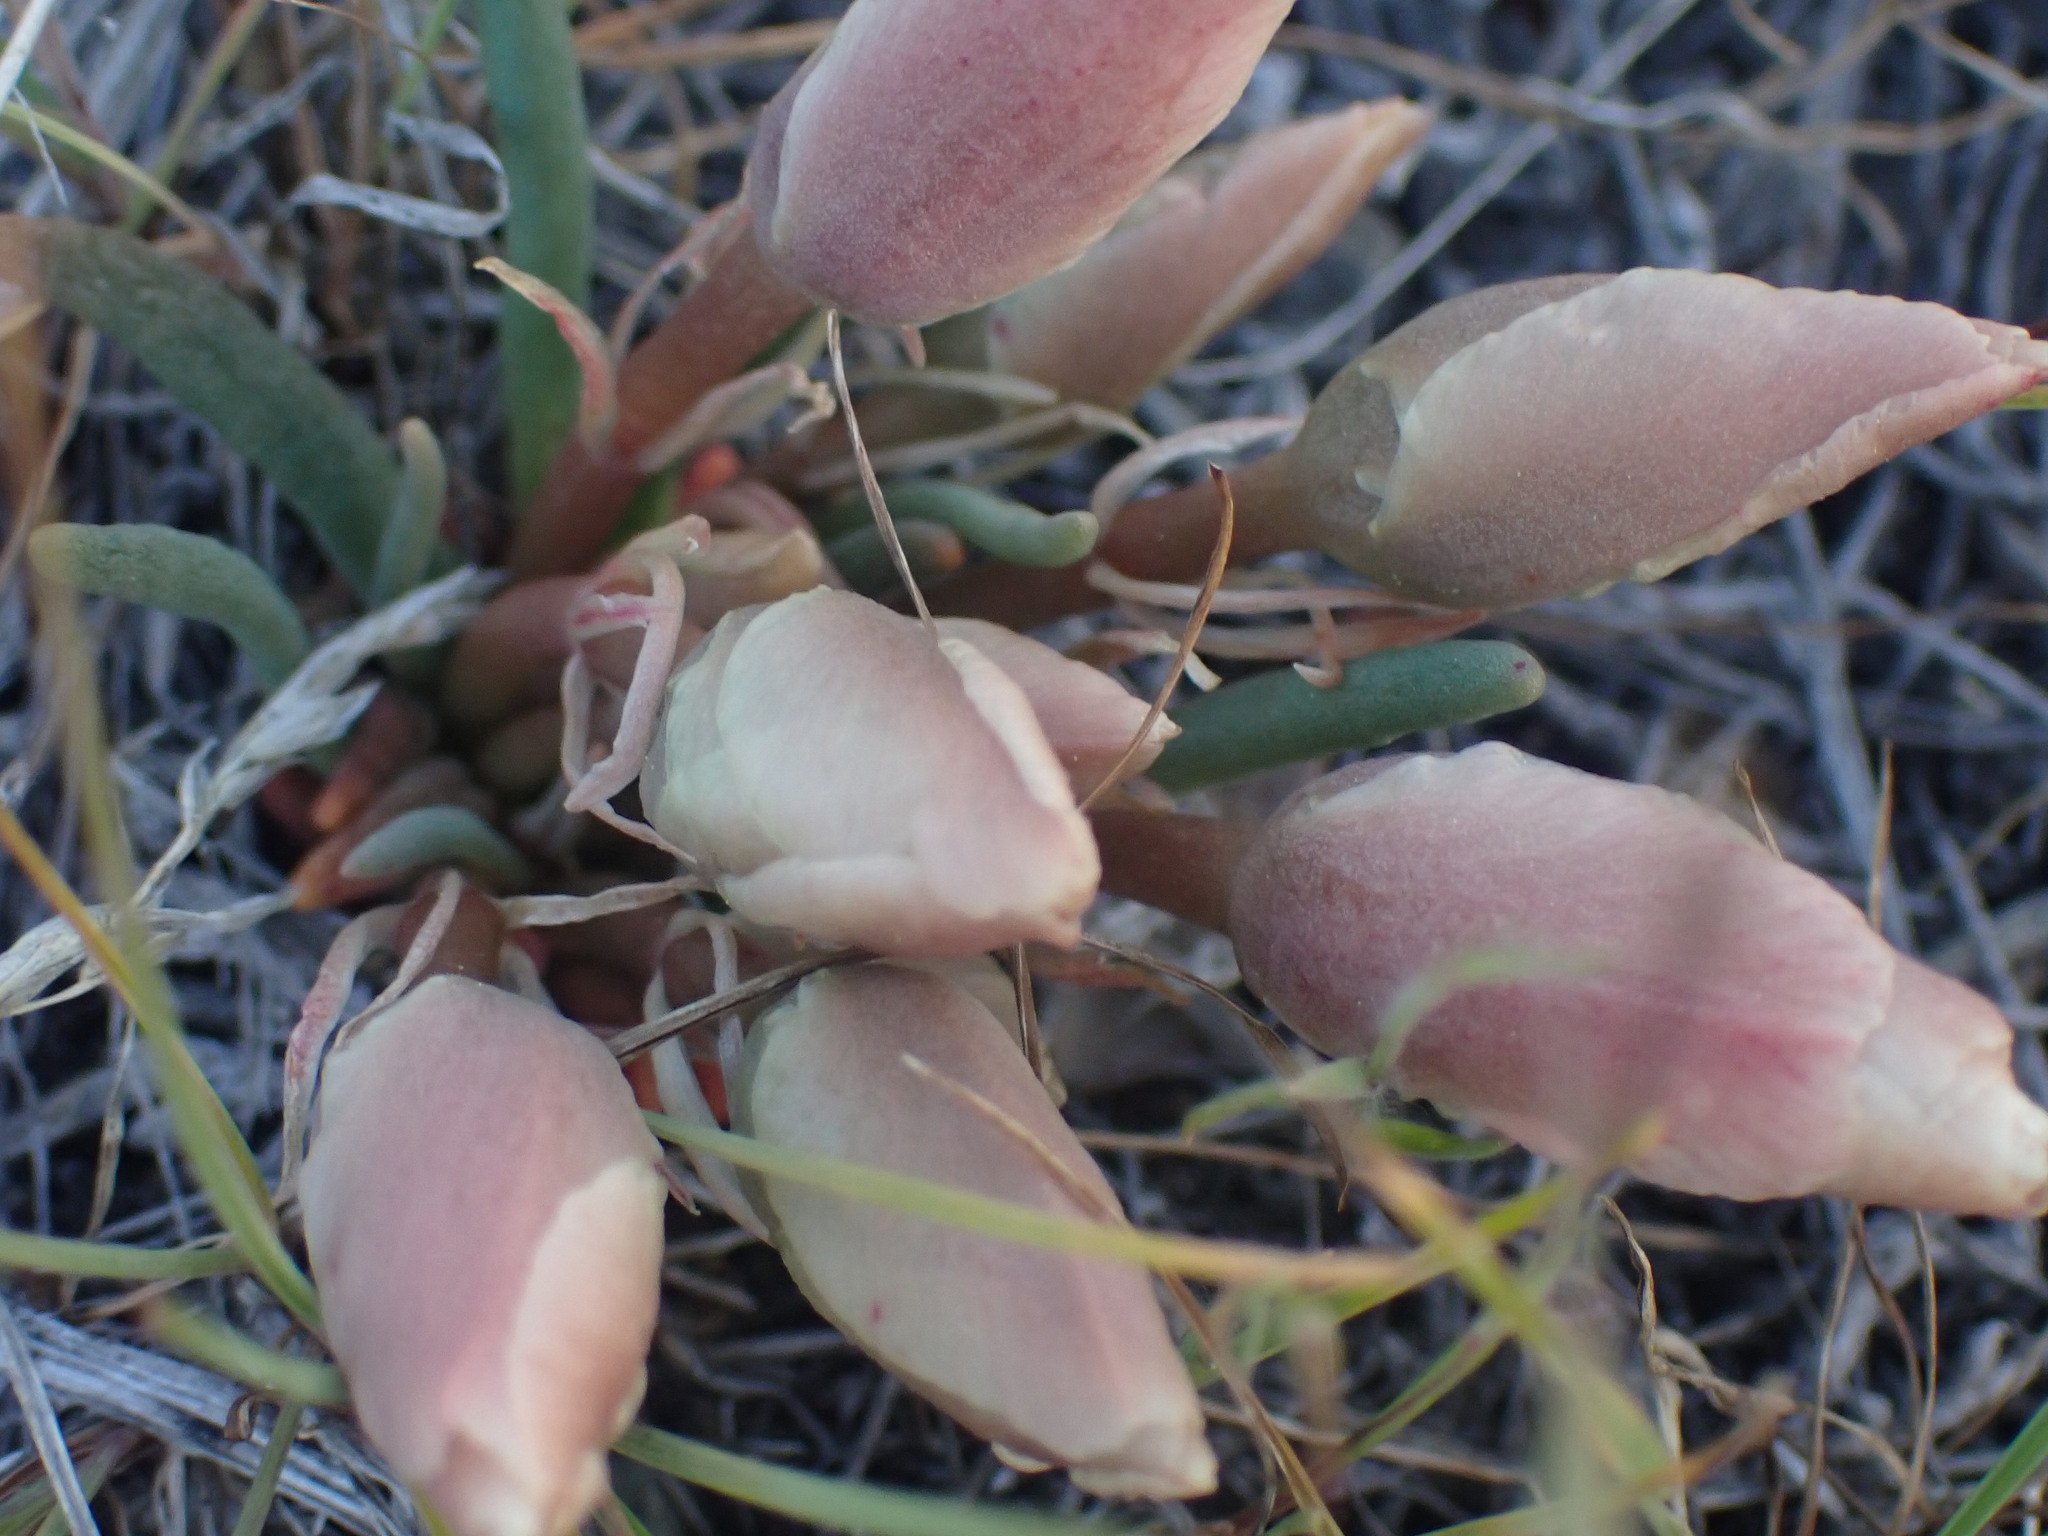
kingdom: Plantae
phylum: Tracheophyta
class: Magnoliopsida
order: Caryophyllales
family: Montiaceae
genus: Lewisia
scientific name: Lewisia rediviva
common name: Bitter-root
